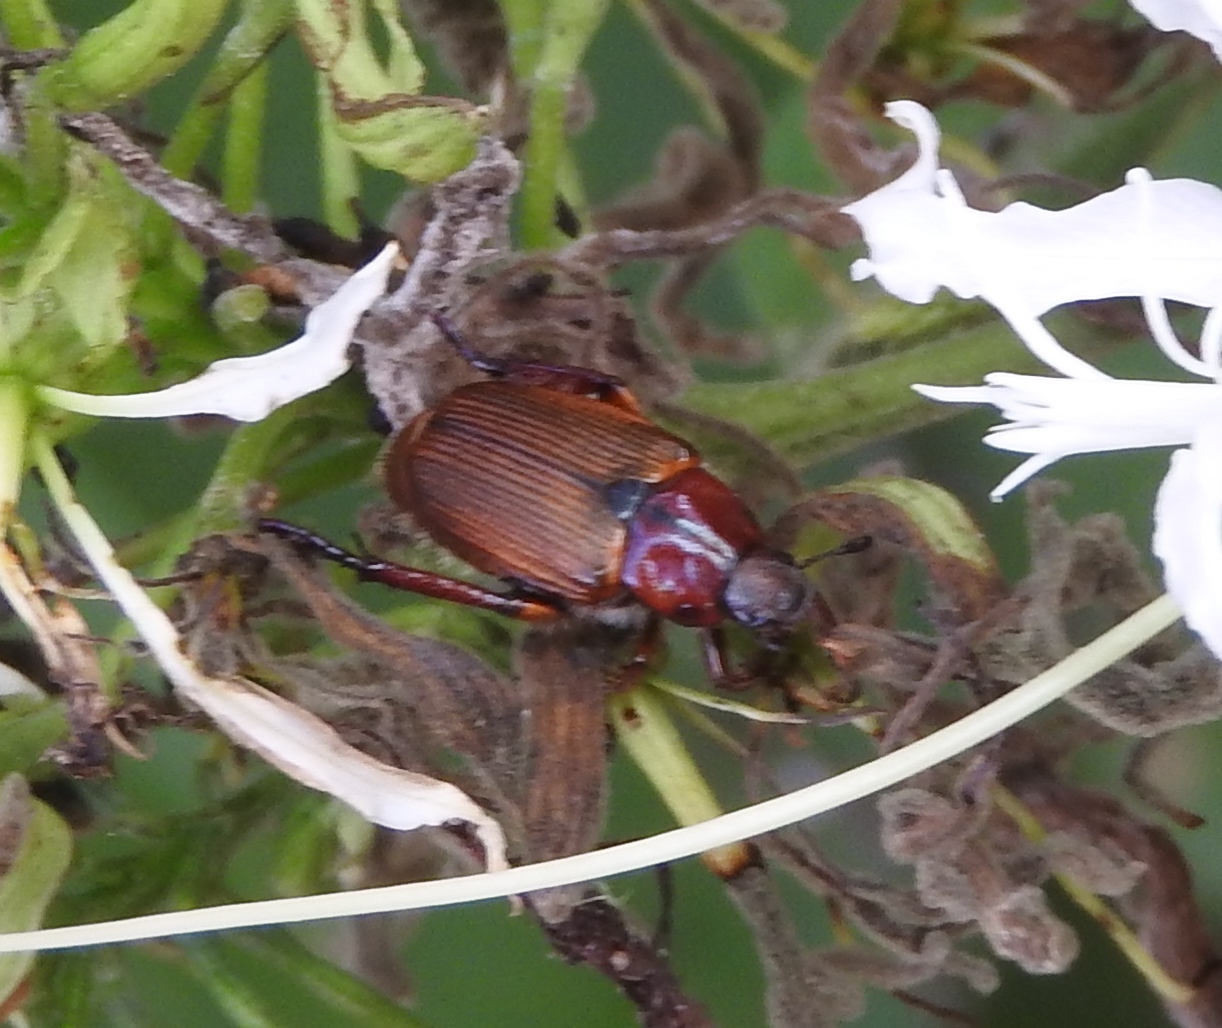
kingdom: Animalia
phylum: Arthropoda
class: Insecta
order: Coleoptera
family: Scarabaeidae
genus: Strigoderma
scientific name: Strigoderma
